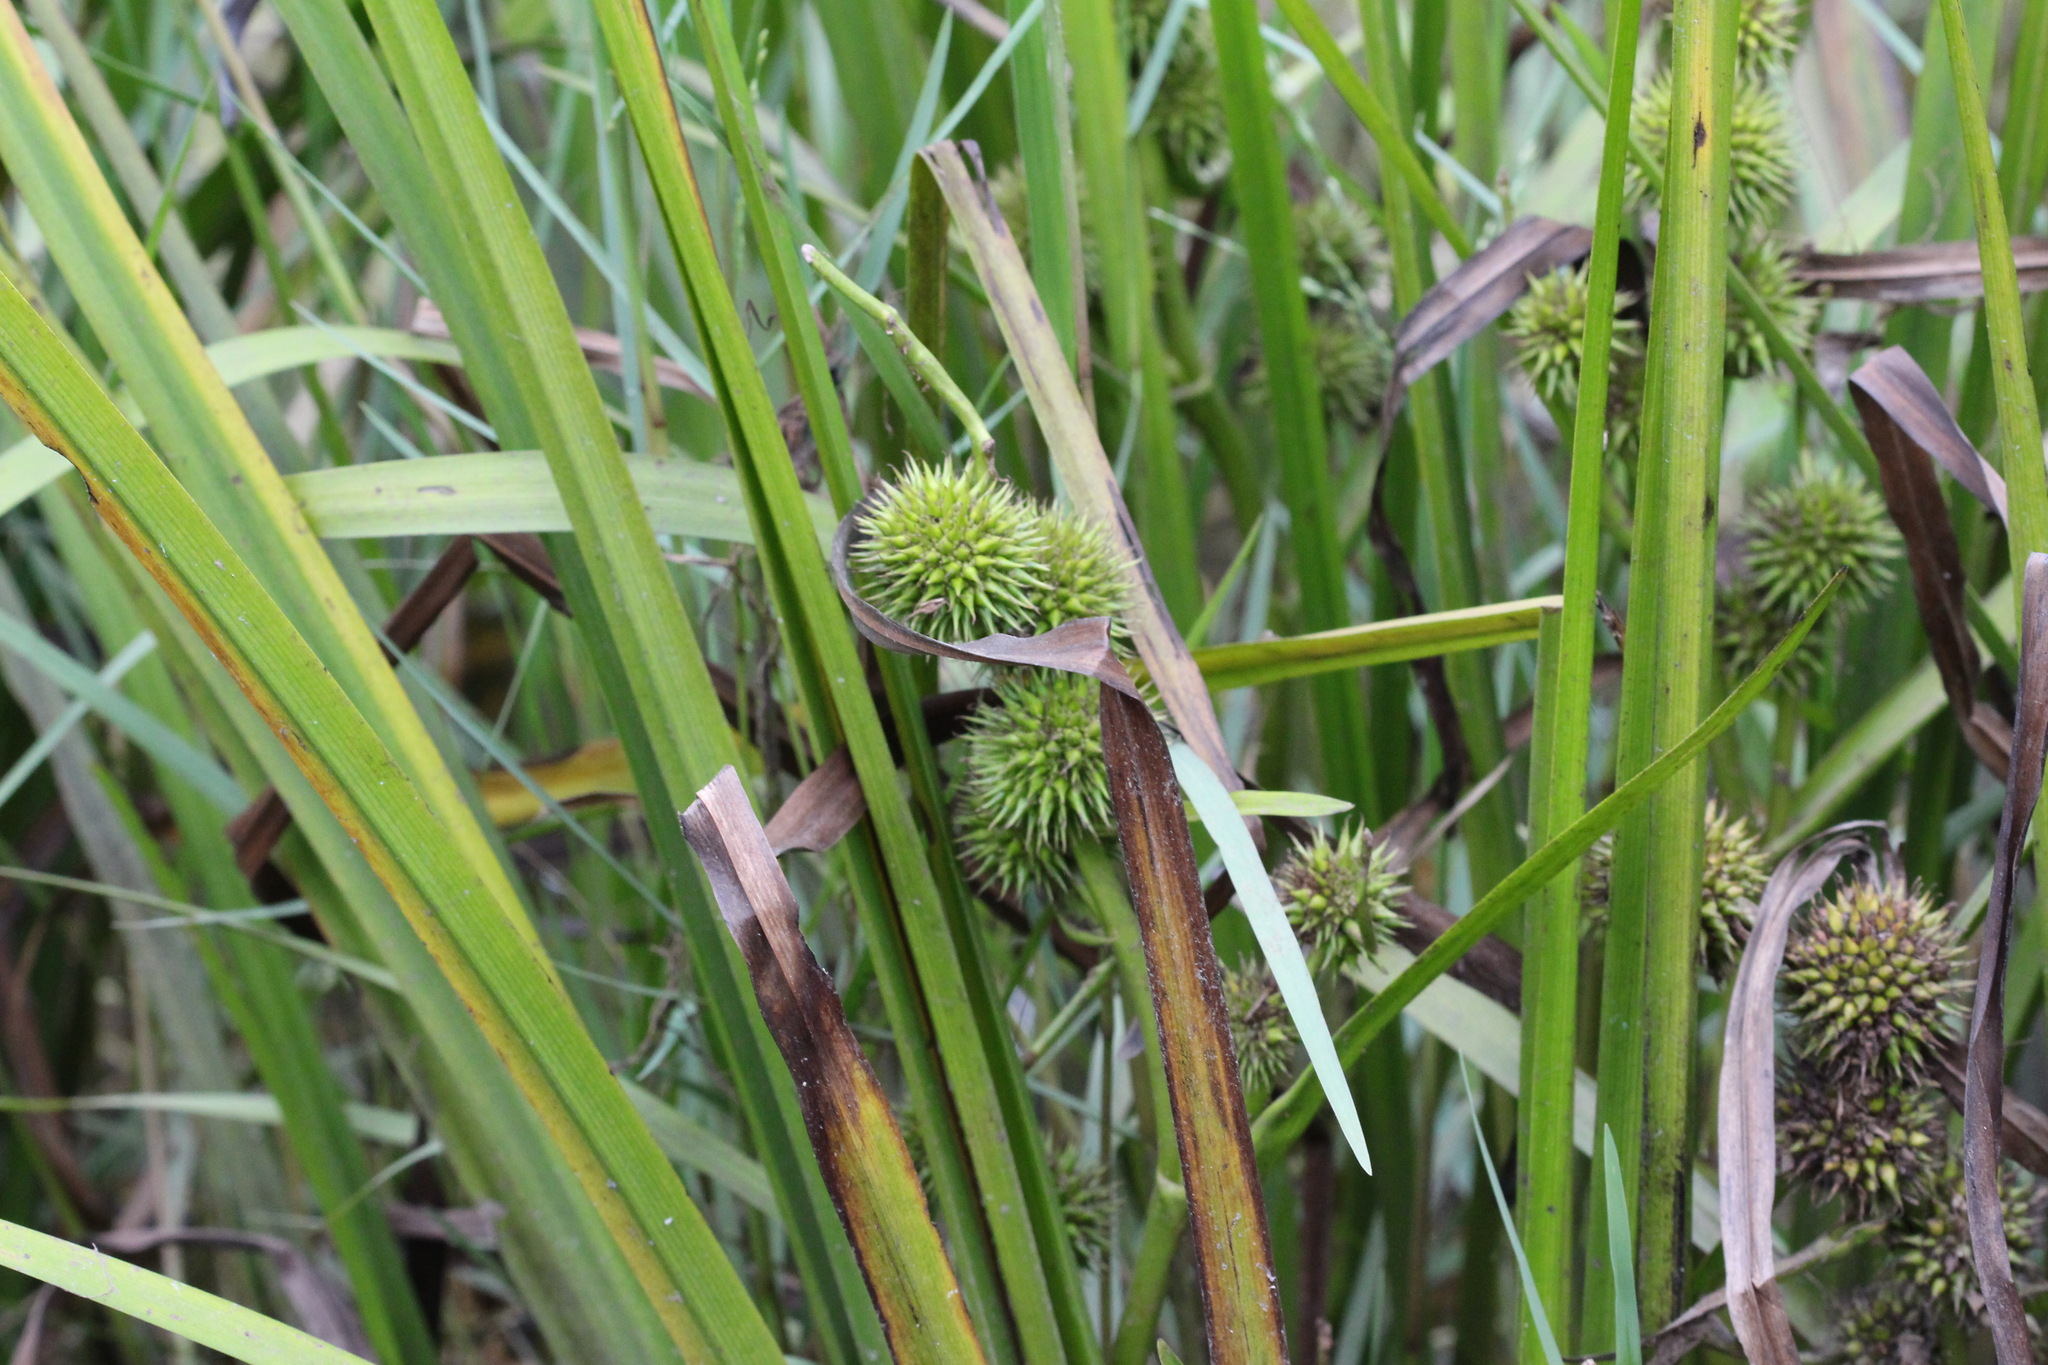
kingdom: Plantae
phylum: Tracheophyta
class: Liliopsida
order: Poales
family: Typhaceae
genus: Sparganium
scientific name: Sparganium americanum
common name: American burreed
